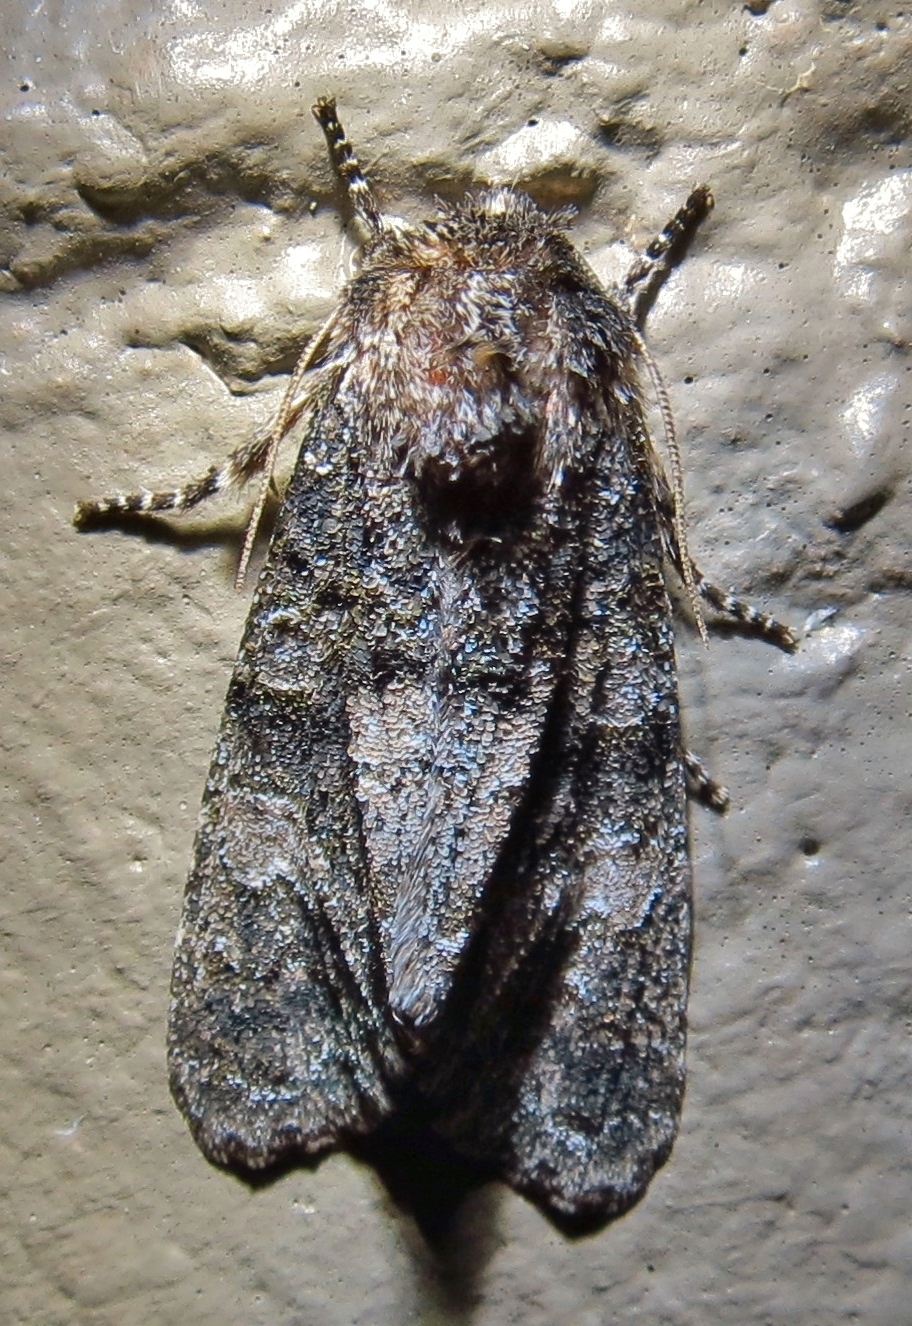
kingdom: Animalia
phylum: Arthropoda
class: Insecta
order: Lepidoptera
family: Noctuidae
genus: Psaphida
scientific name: Psaphida resumens
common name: Figure-eight sallow
